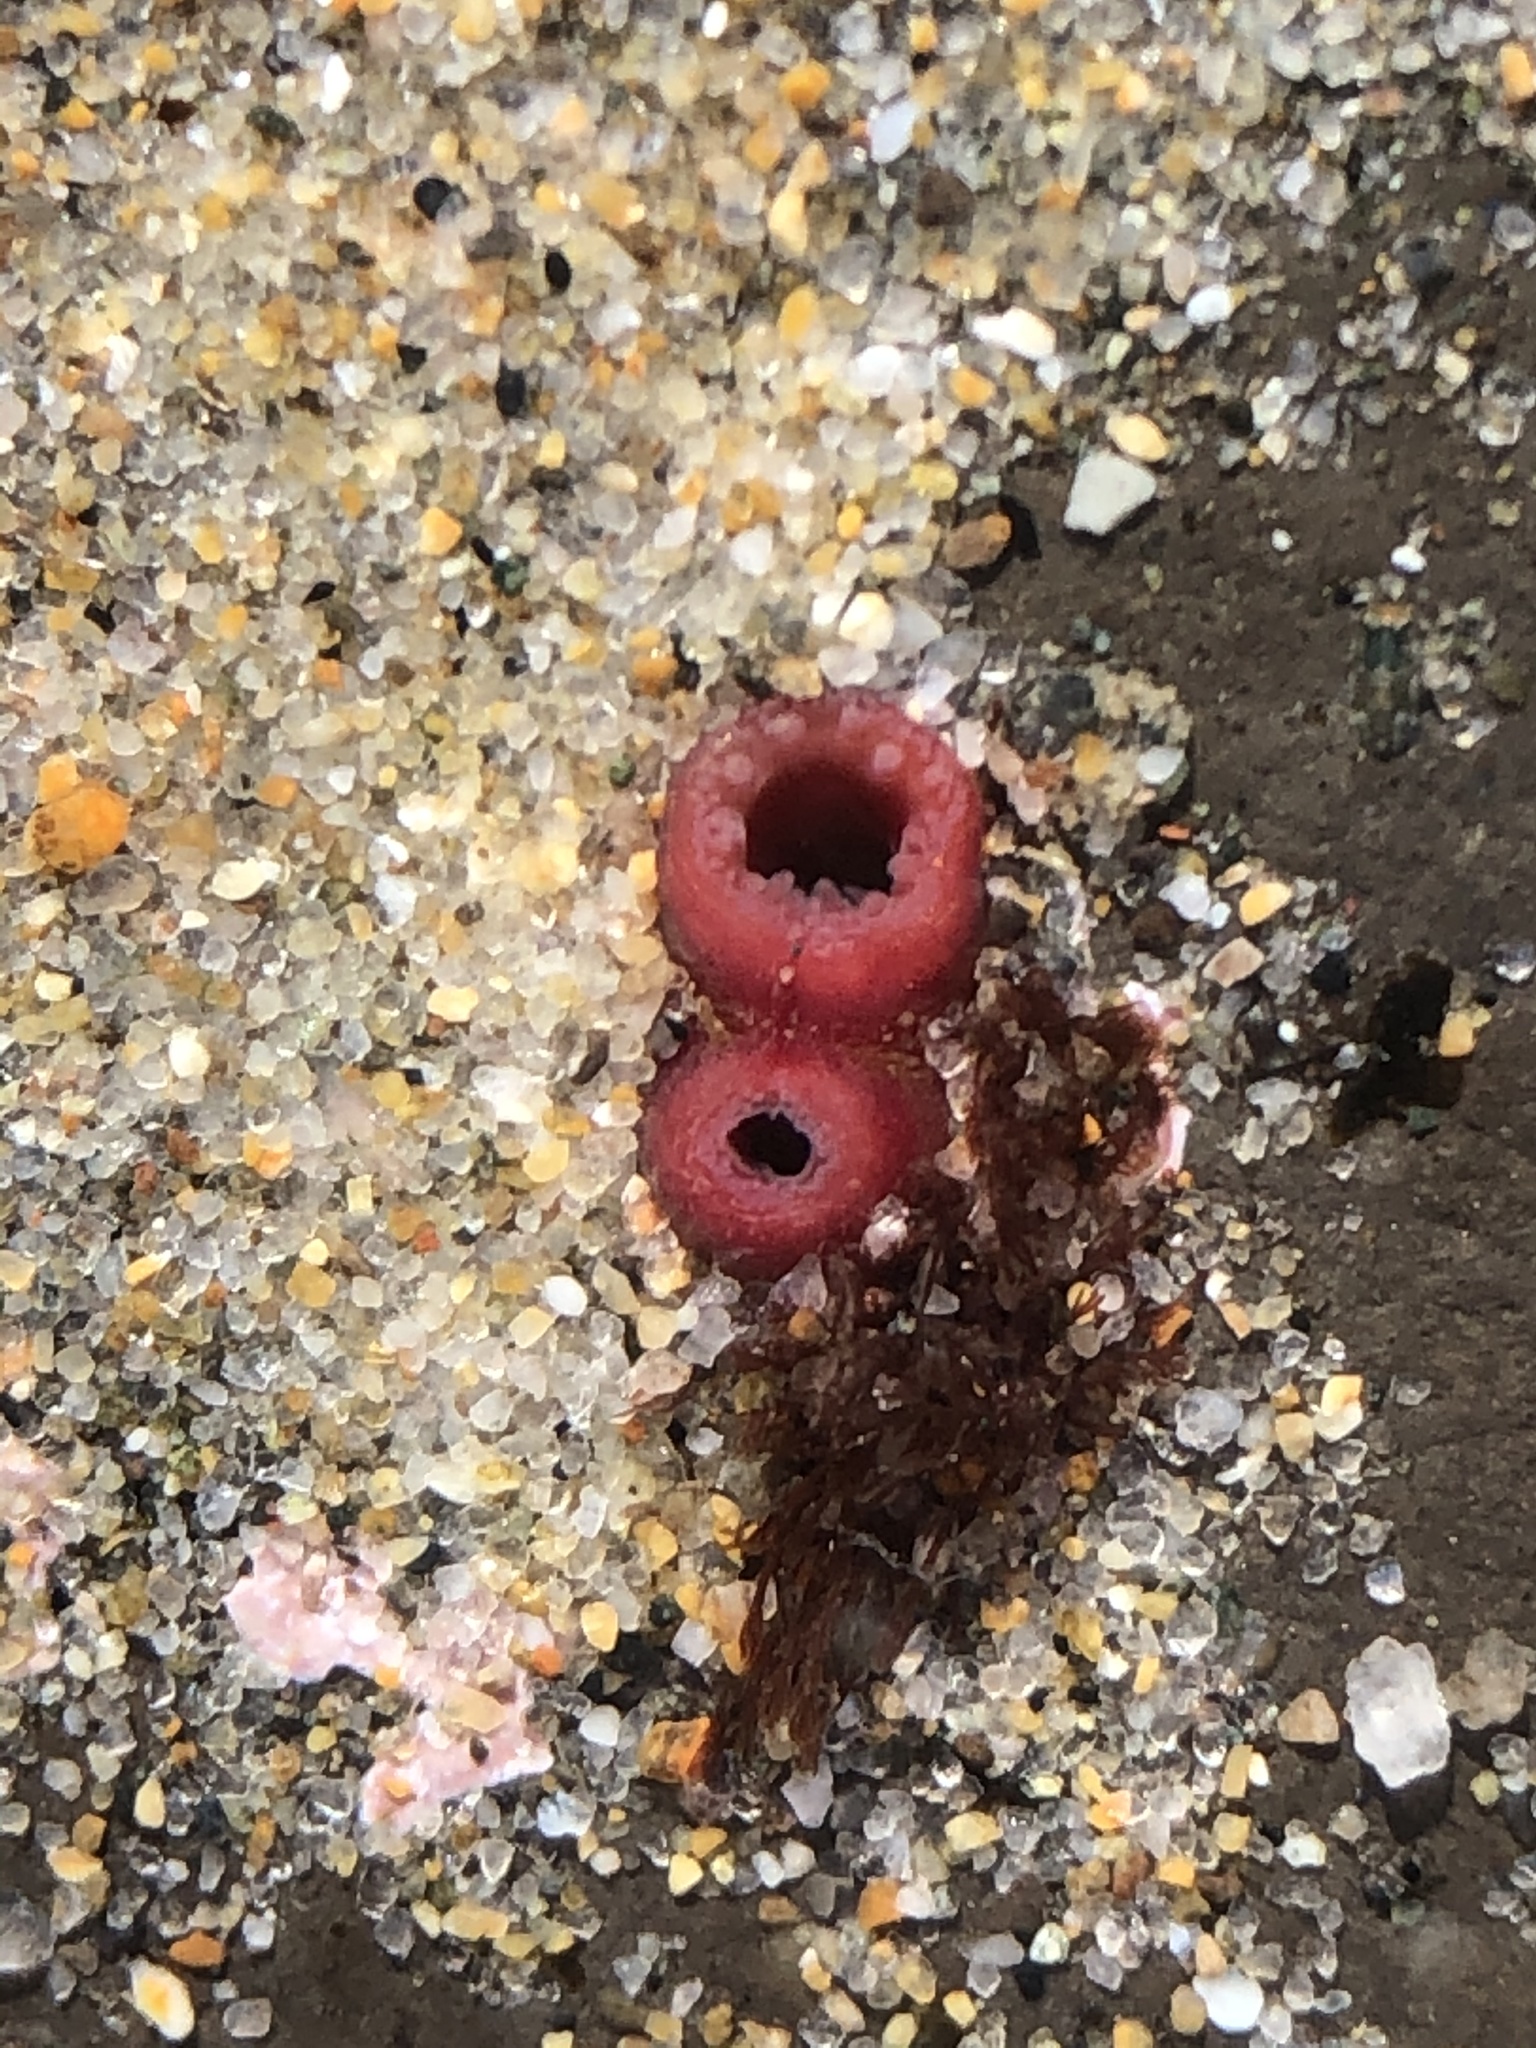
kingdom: Animalia
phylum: Mollusca
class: Bivalvia
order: Adapedonta
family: Hiatellidae
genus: Hiatella
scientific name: Hiatella arctica
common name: Arctic hiatella
